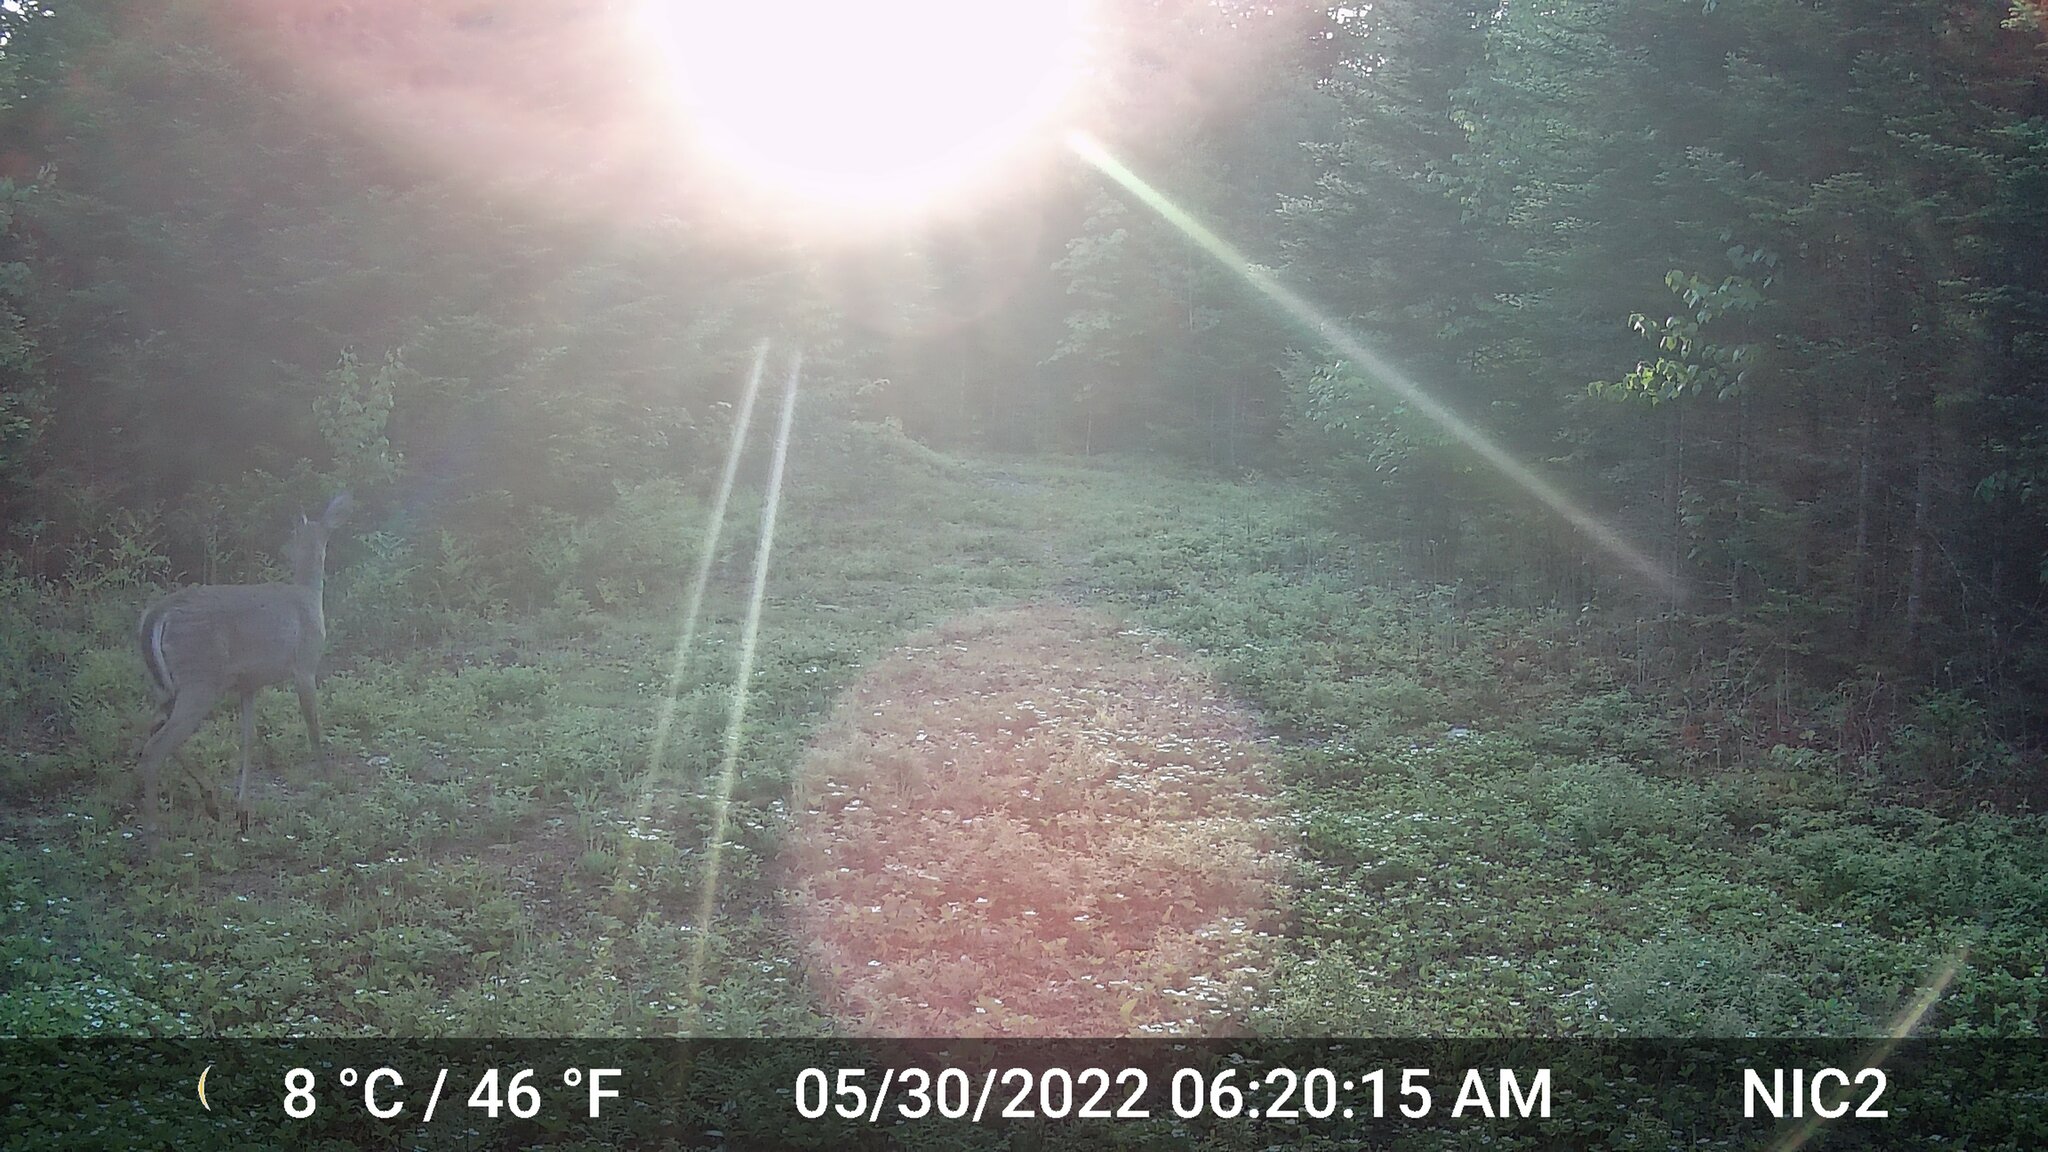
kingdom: Animalia
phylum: Chordata
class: Mammalia
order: Artiodactyla
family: Cervidae
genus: Odocoileus
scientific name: Odocoileus virginianus
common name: White-tailed deer
